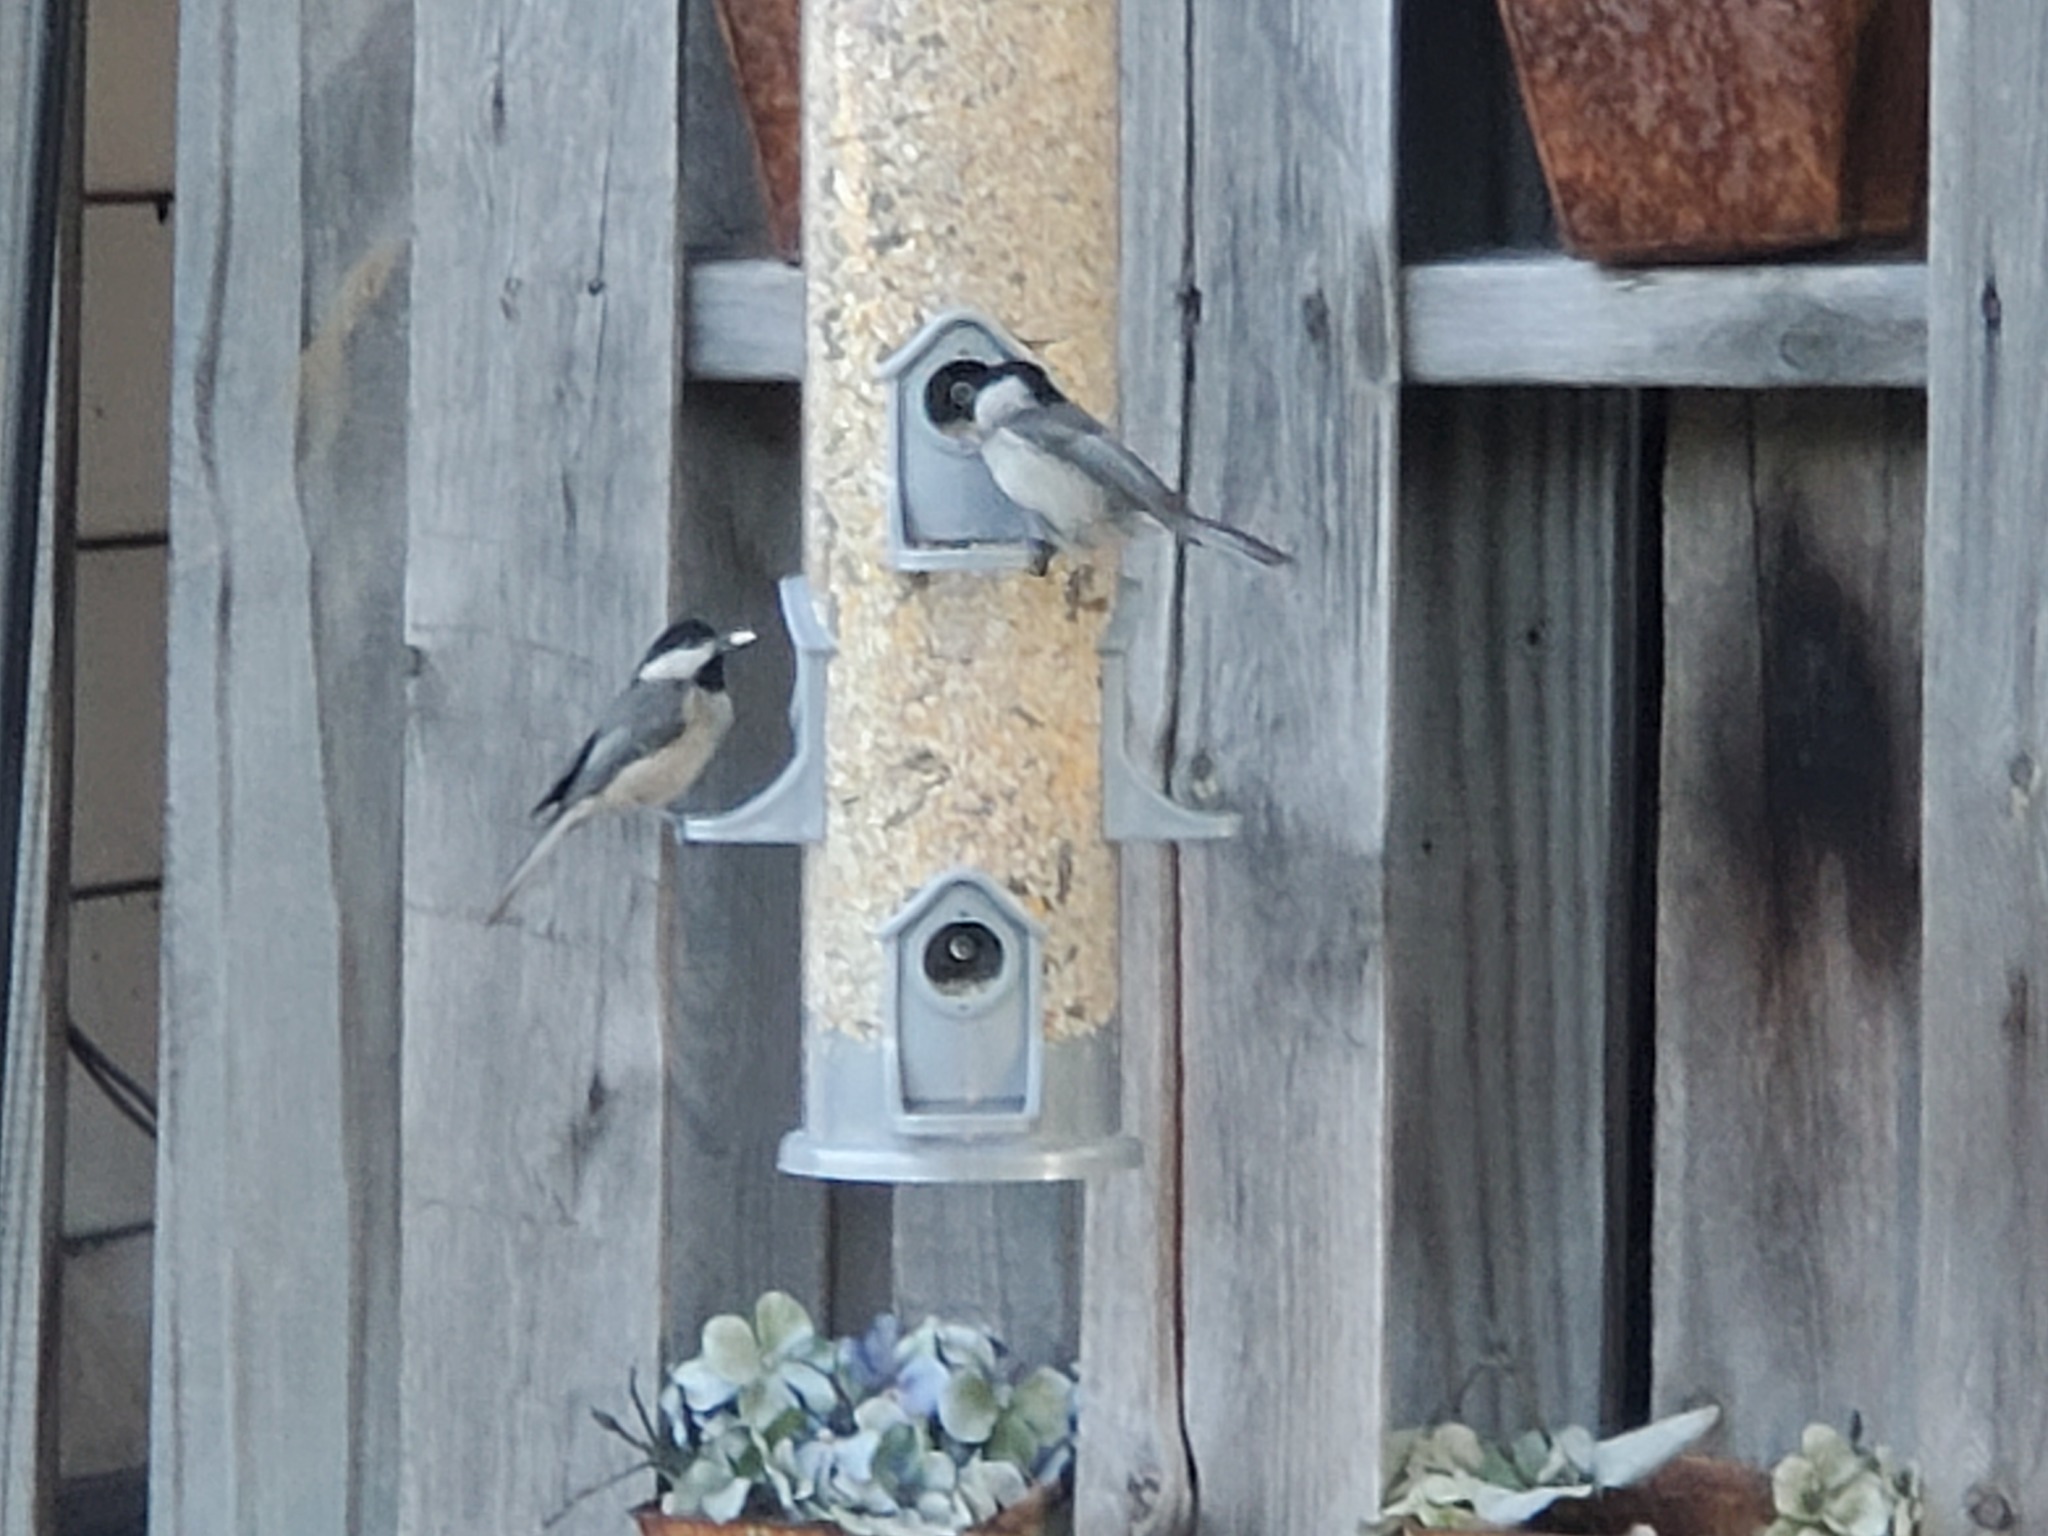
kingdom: Animalia
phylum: Chordata
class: Aves
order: Passeriformes
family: Paridae
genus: Poecile
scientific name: Poecile carolinensis
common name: Carolina chickadee
